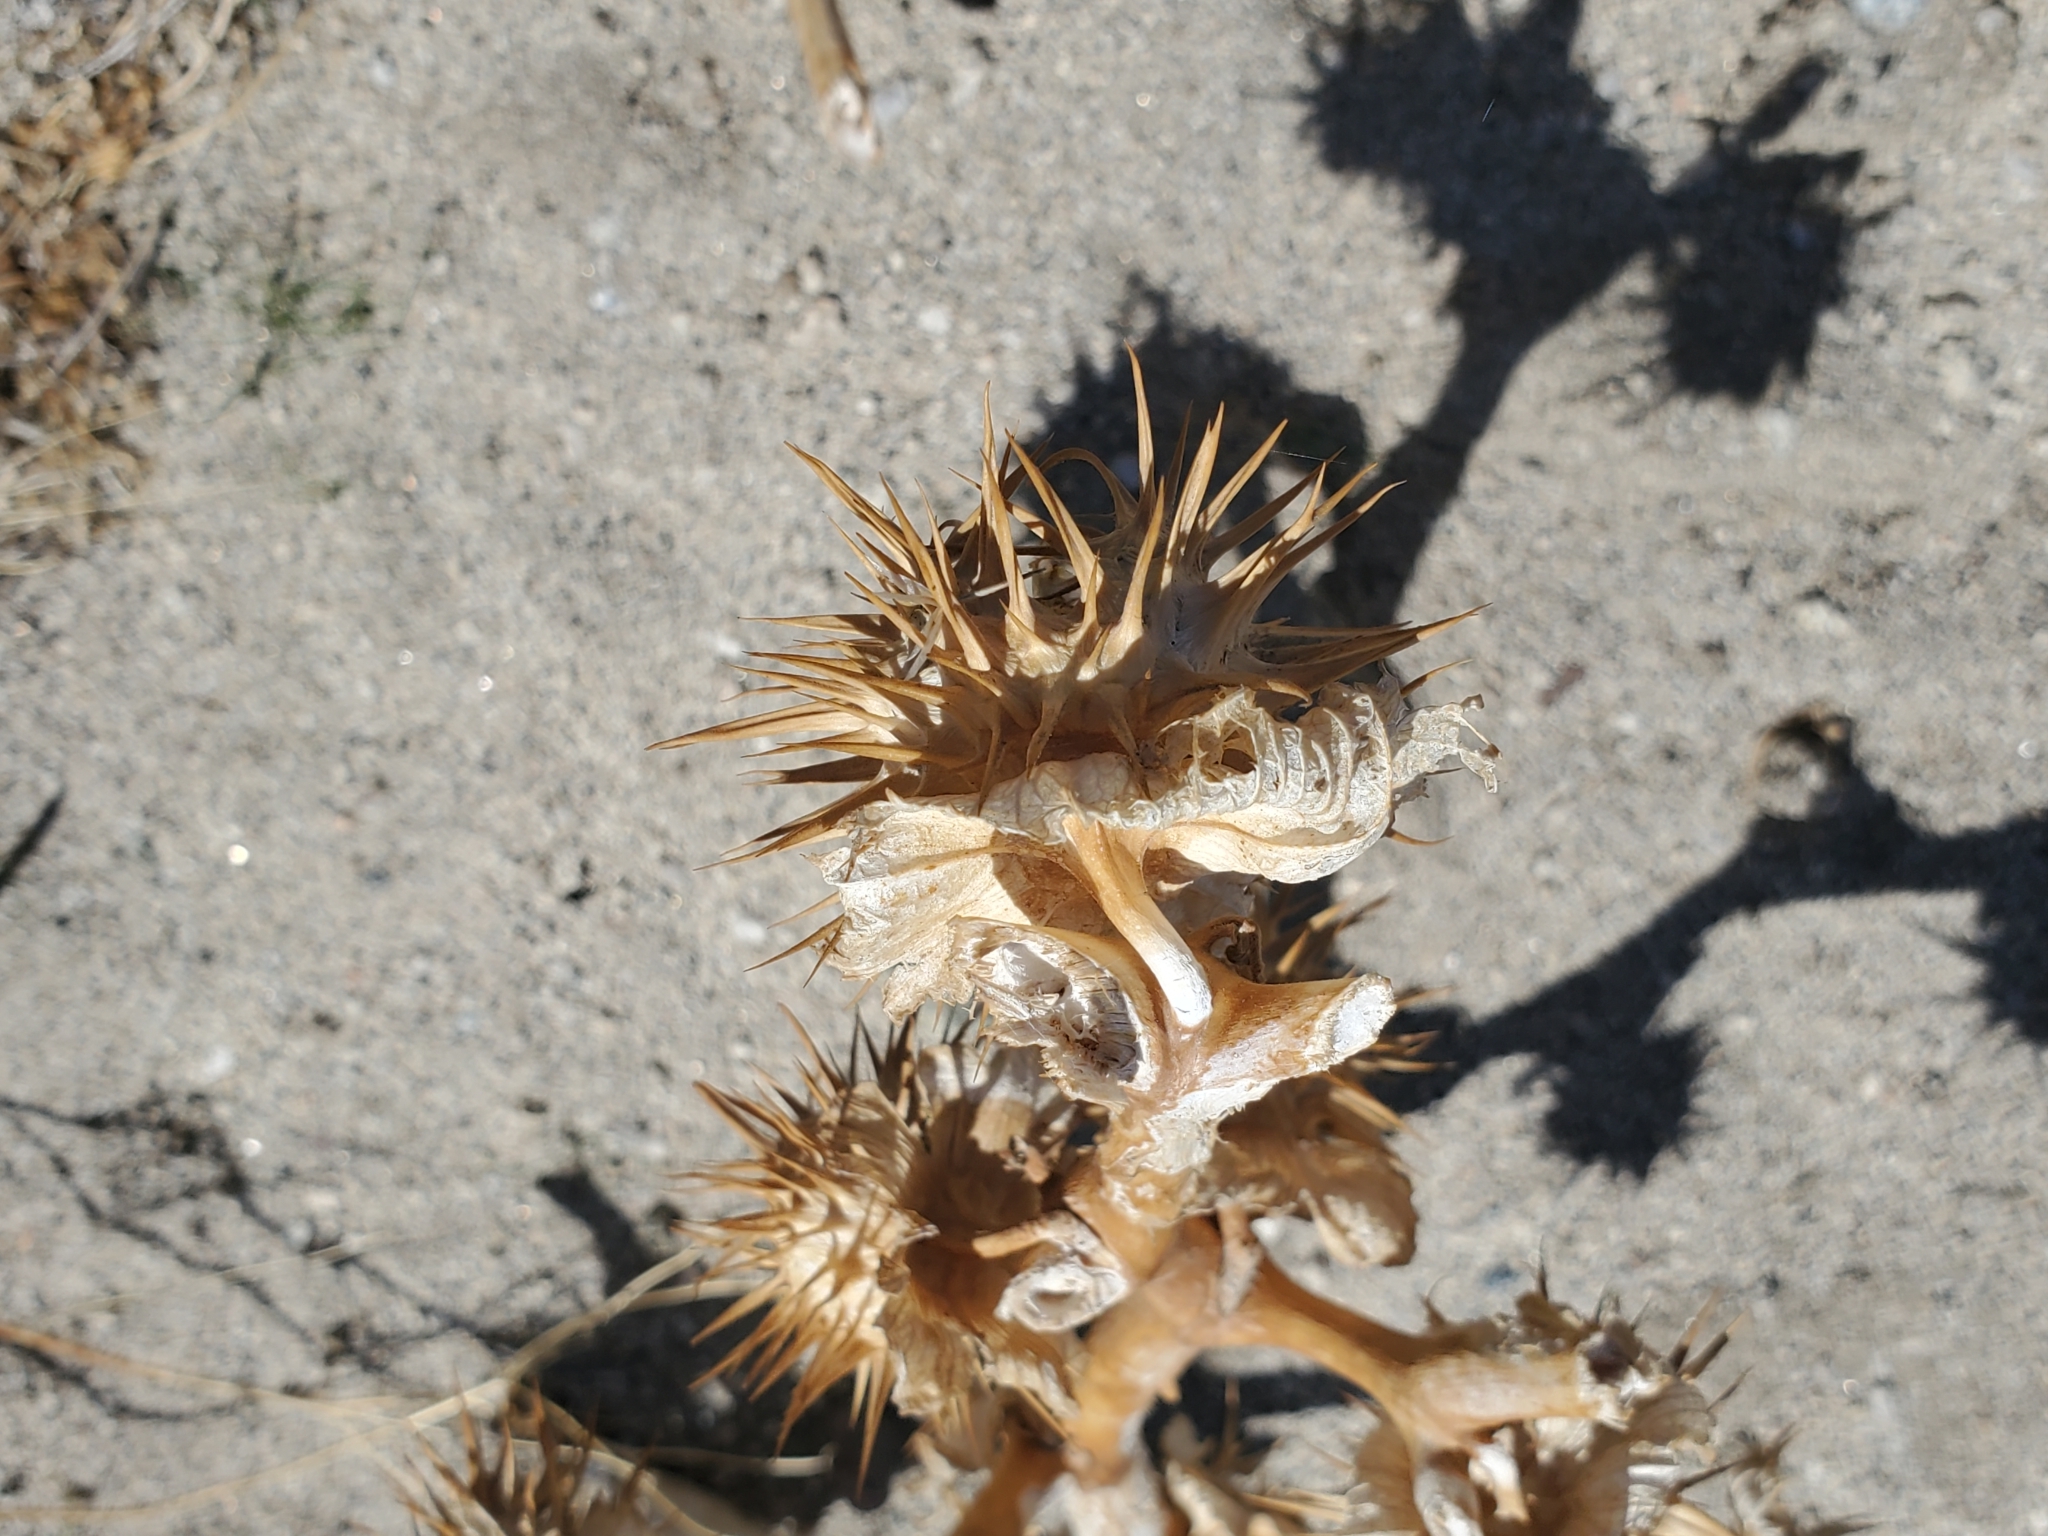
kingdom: Plantae
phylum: Tracheophyta
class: Magnoliopsida
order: Solanales
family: Solanaceae
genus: Datura
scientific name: Datura discolor
